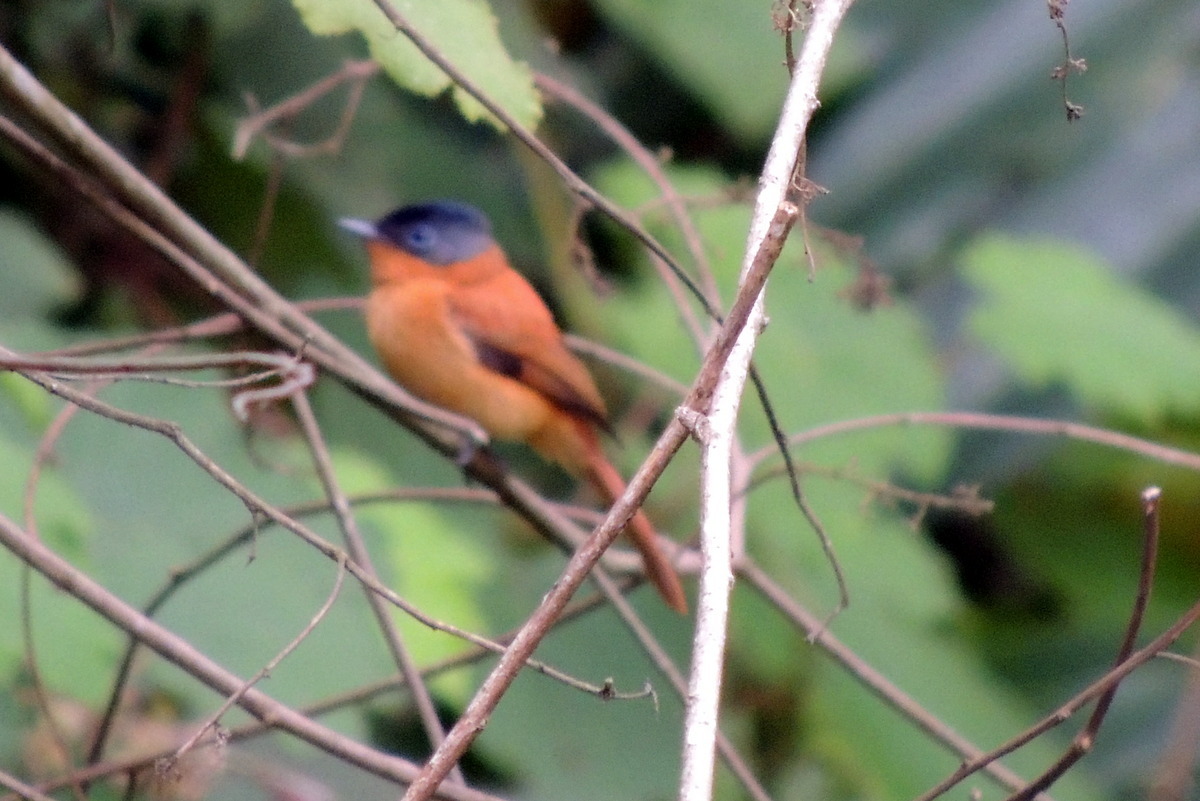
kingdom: Animalia
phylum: Chordata
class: Aves
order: Passeriformes
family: Monarchidae
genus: Terpsiphone
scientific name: Terpsiphone mutata
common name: Malagasy paradise flycatcher
